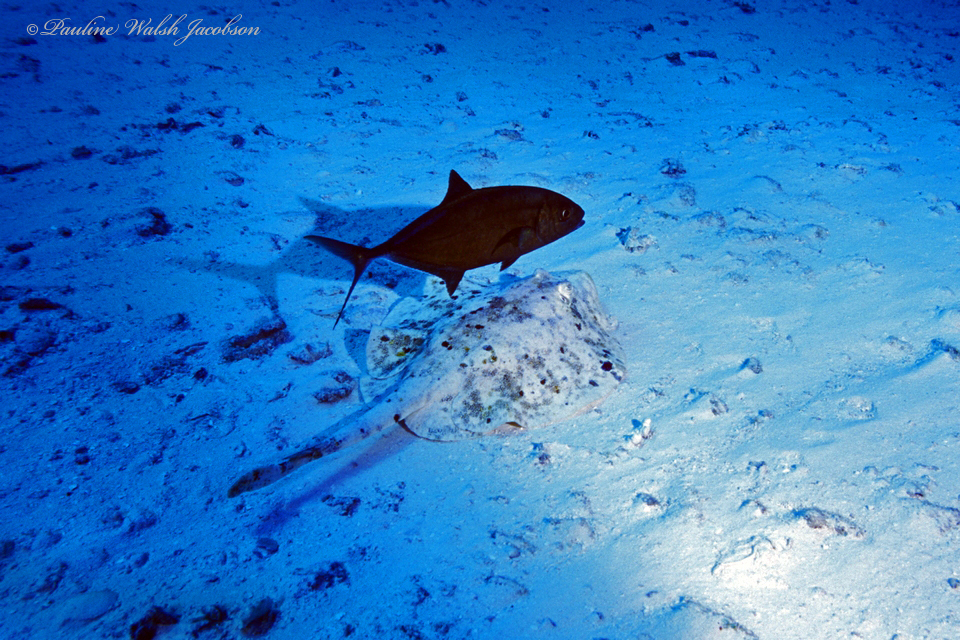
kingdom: Animalia
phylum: Chordata
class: Elasmobranchii
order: Myliobatiformes
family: Urotrygonidae
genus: Urobatis
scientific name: Urobatis jamaicensis
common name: Yellow stingray
